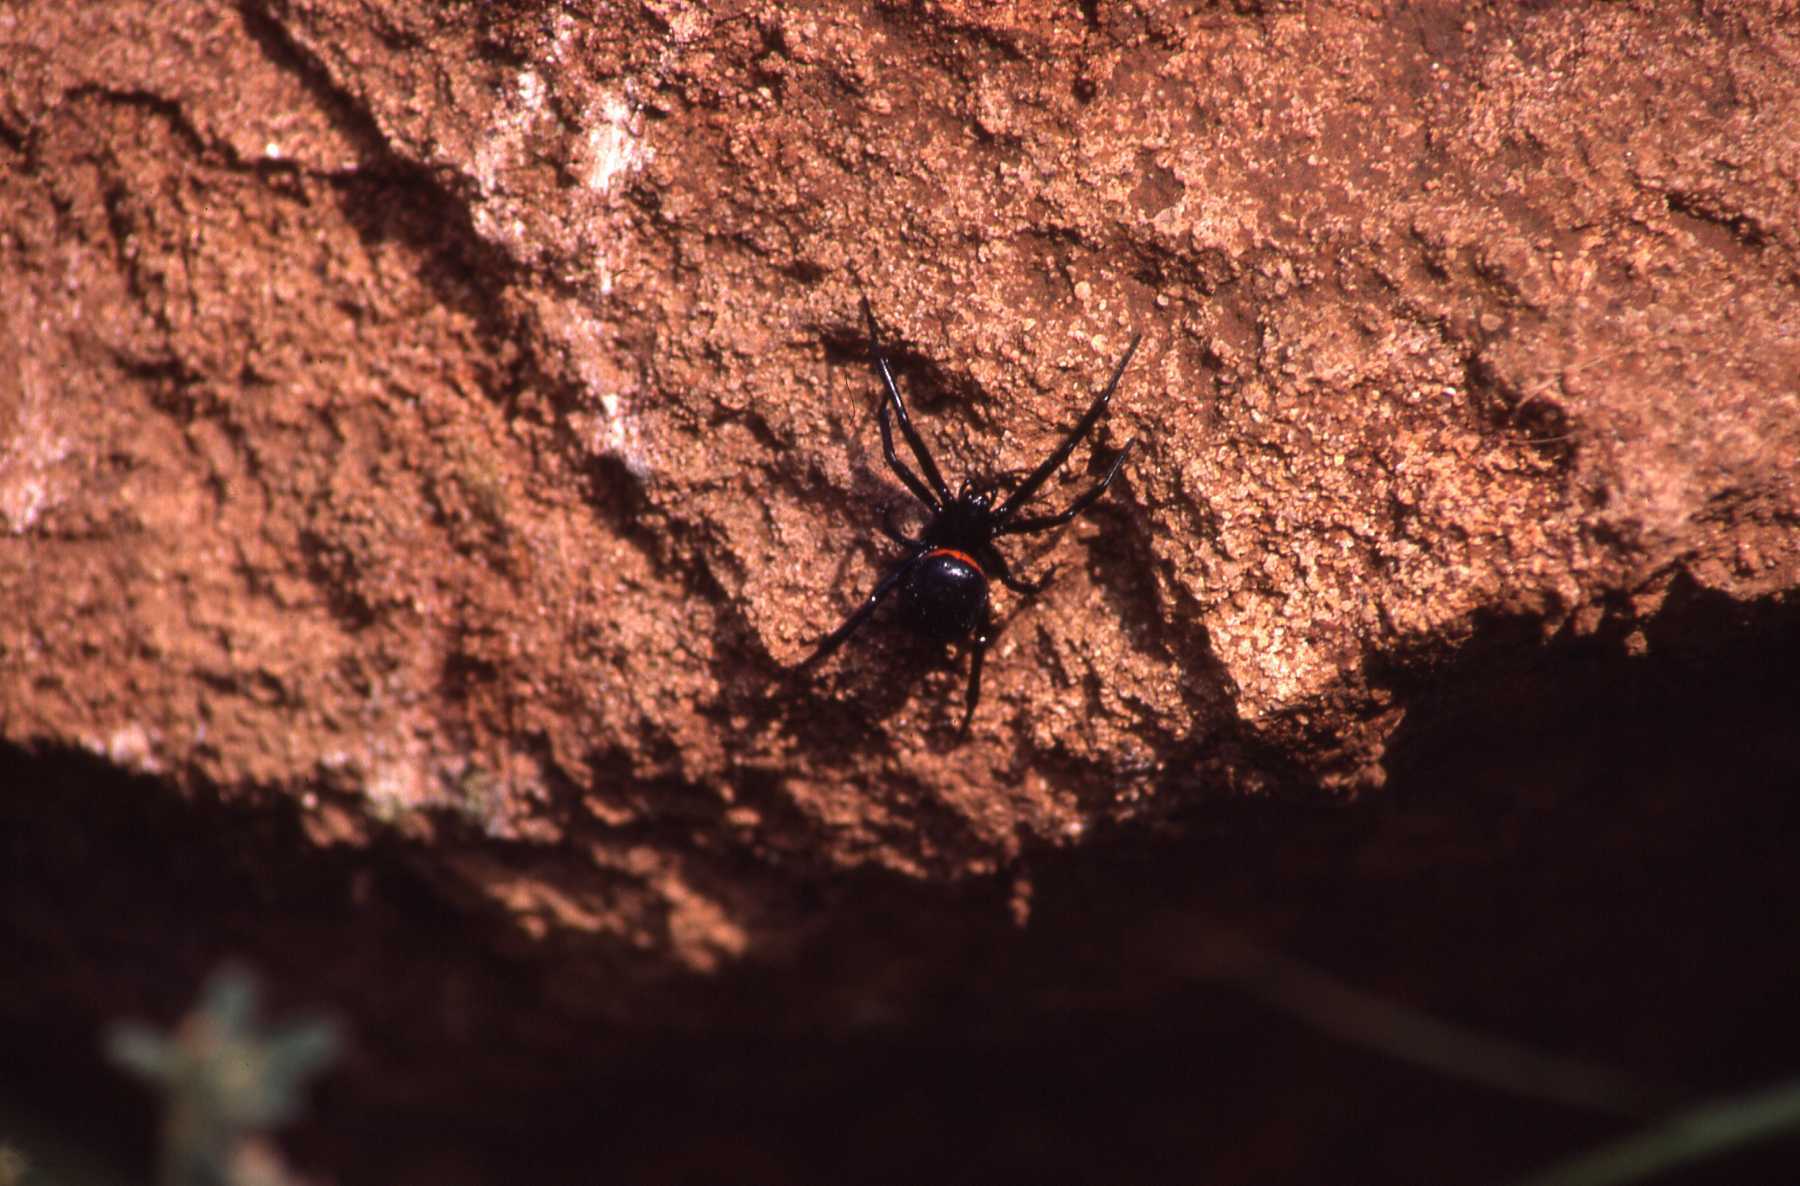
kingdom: Animalia
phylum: Arthropoda
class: Arachnida
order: Araneae
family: Theridiidae
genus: Steatoda
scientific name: Steatoda paykulliana
